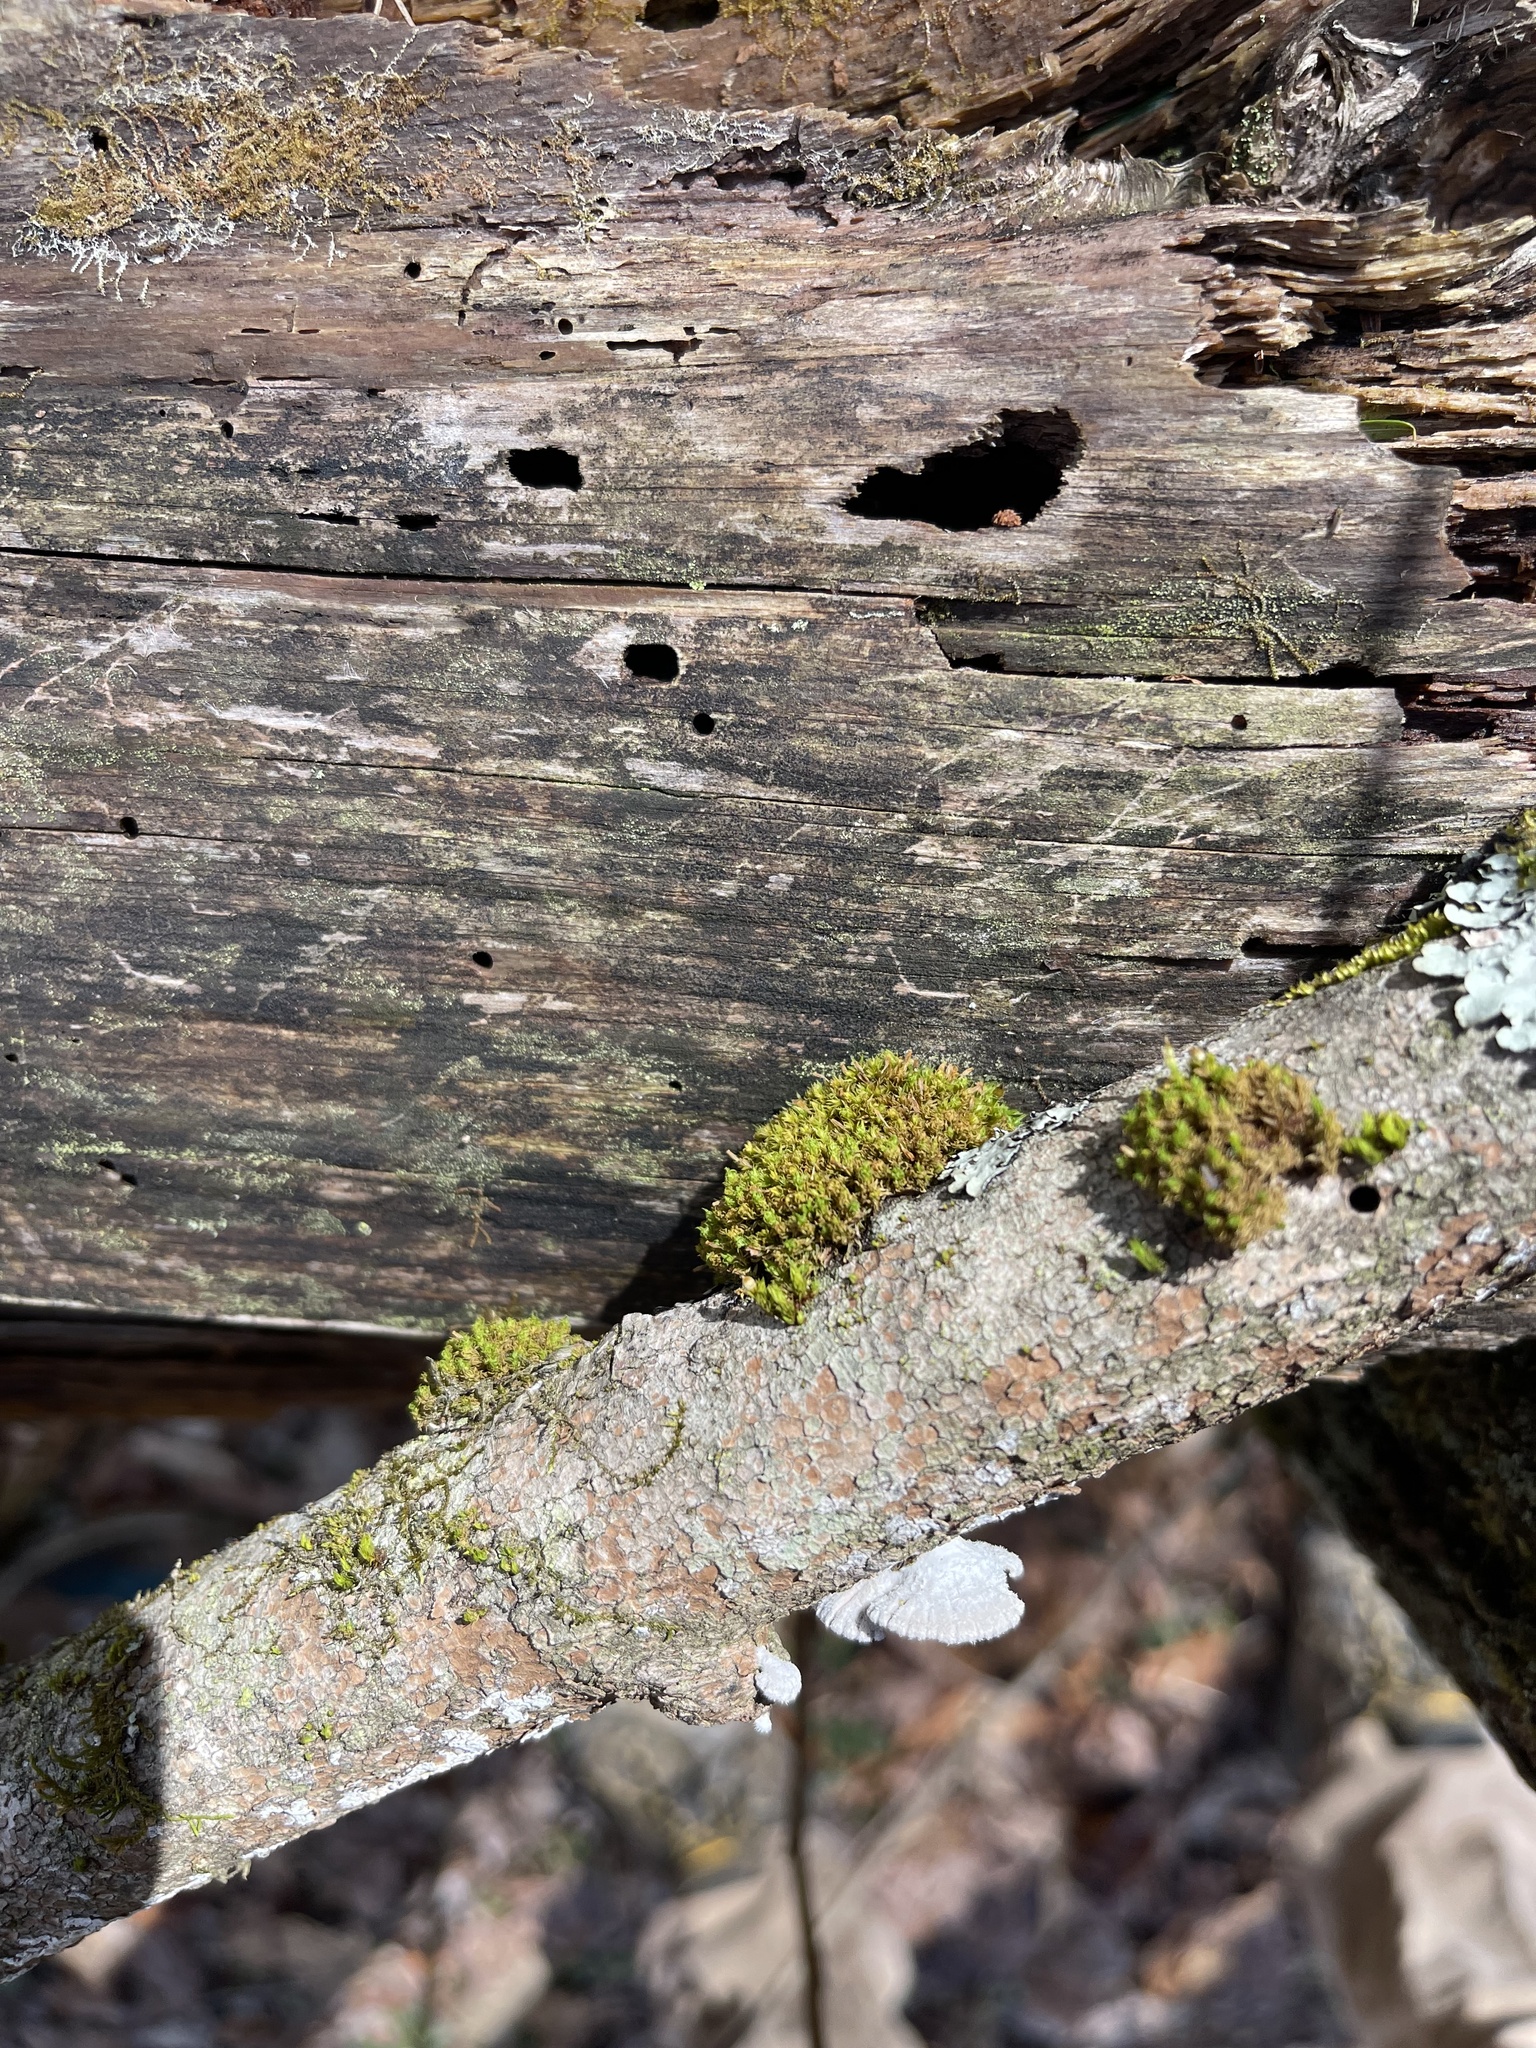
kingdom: Fungi
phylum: Basidiomycota
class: Agaricomycetes
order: Agaricales
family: Schizophyllaceae
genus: Schizophyllum
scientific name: Schizophyllum commune
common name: Common porecrust
